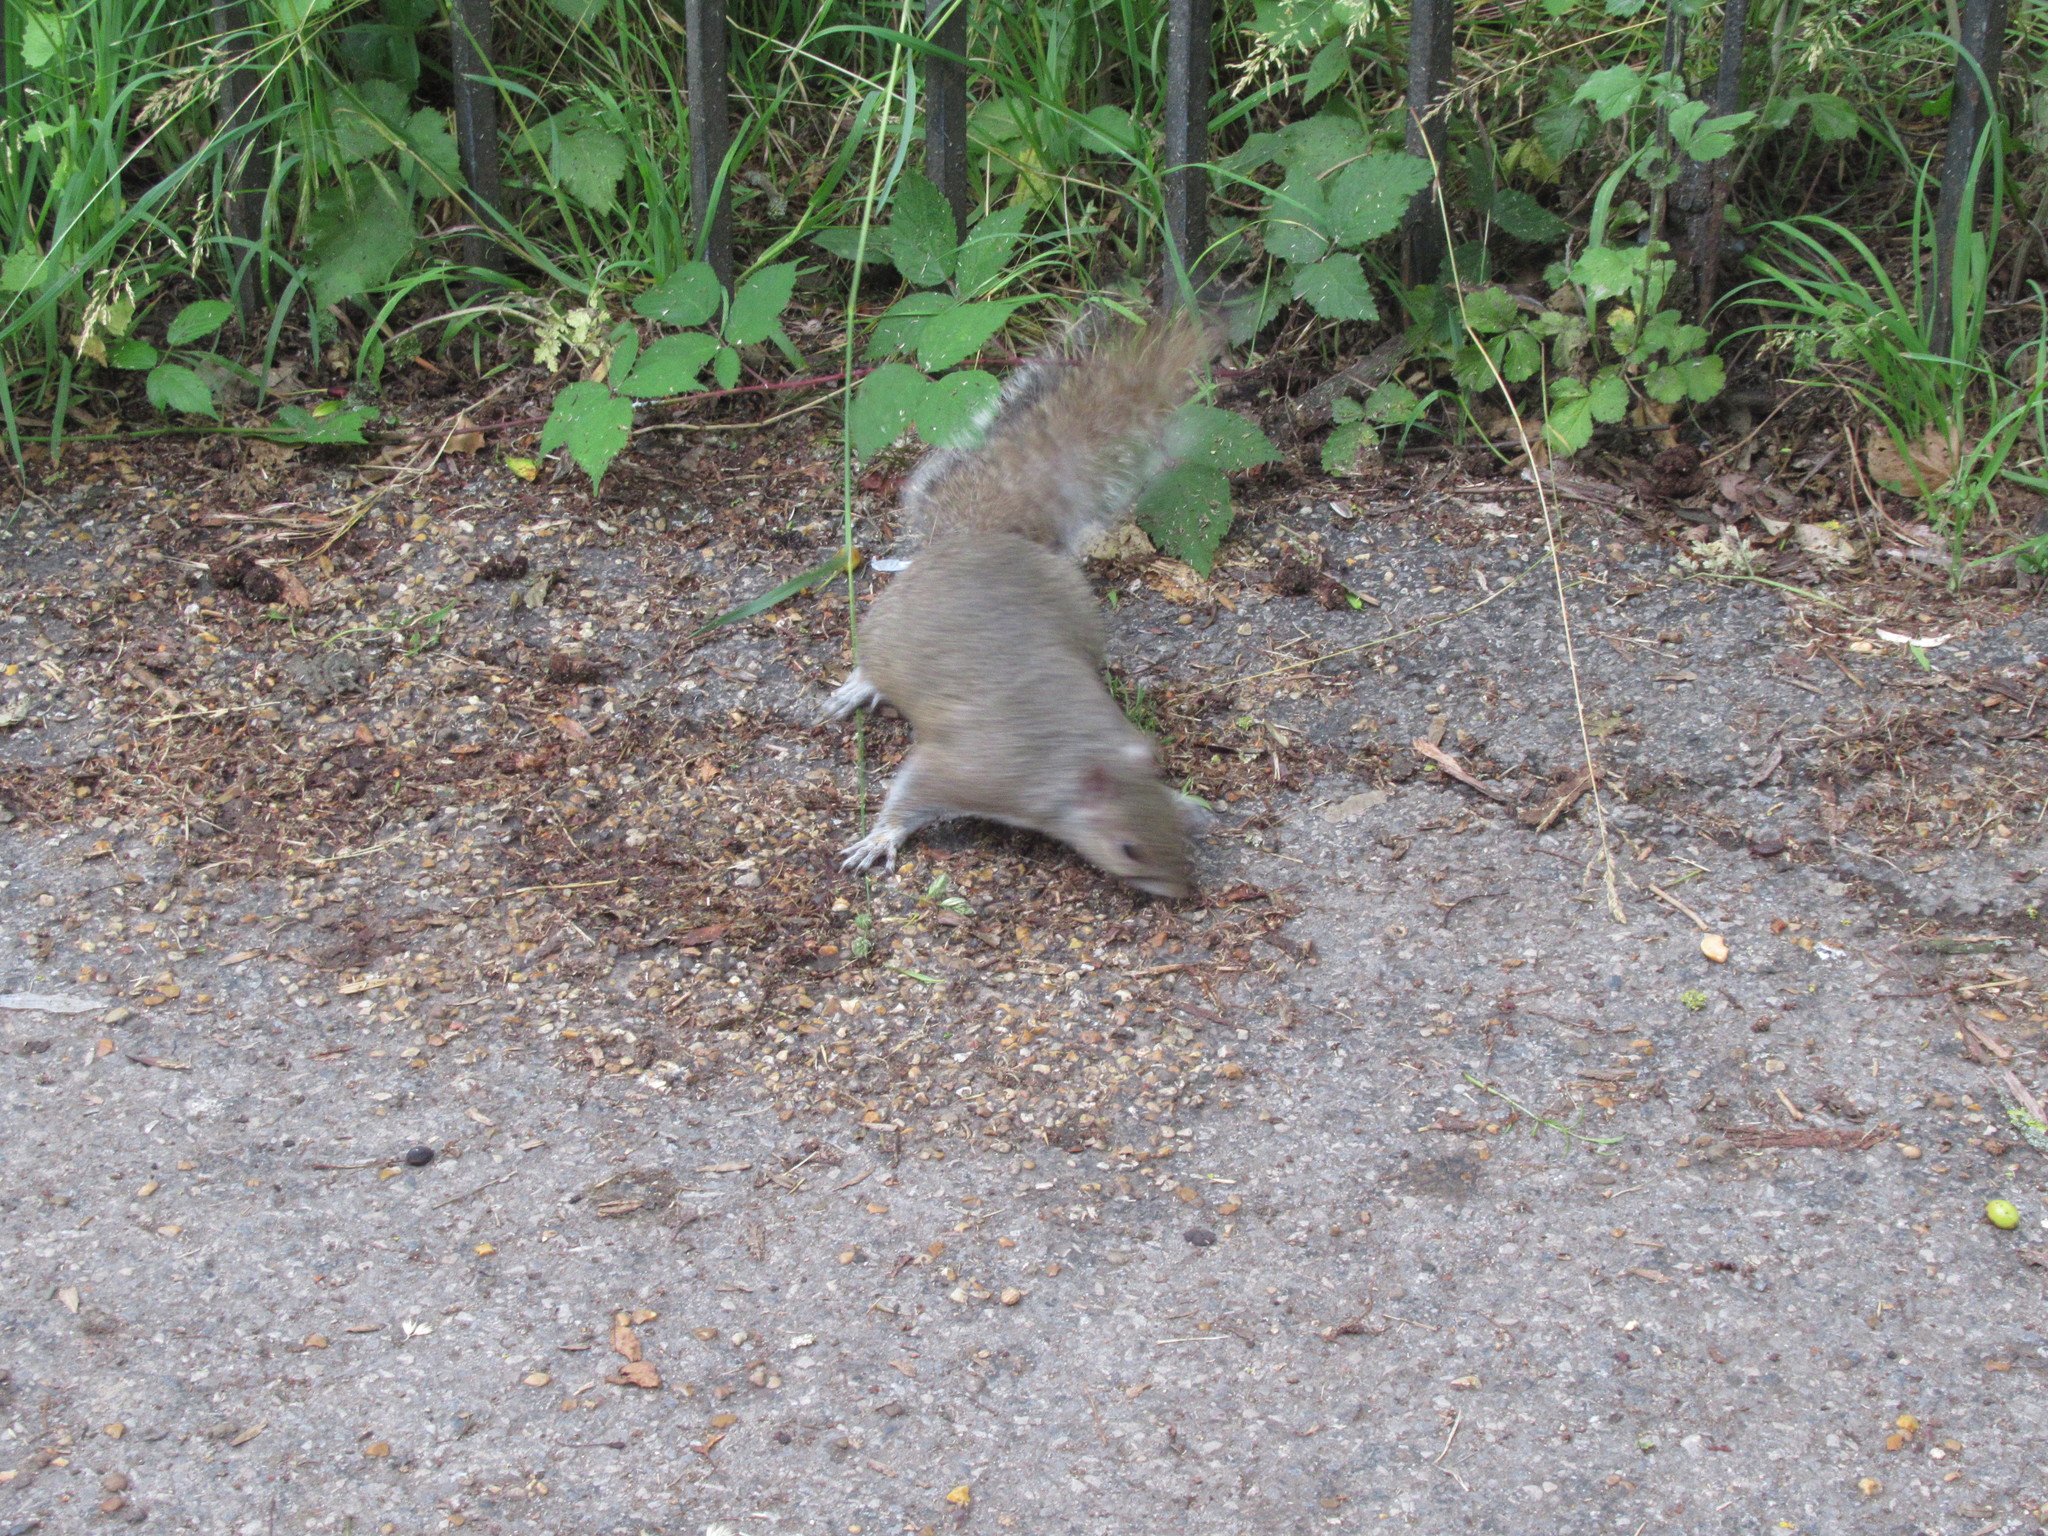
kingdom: Animalia
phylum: Chordata
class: Mammalia
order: Rodentia
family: Sciuridae
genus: Sciurus
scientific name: Sciurus carolinensis
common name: Eastern gray squirrel
